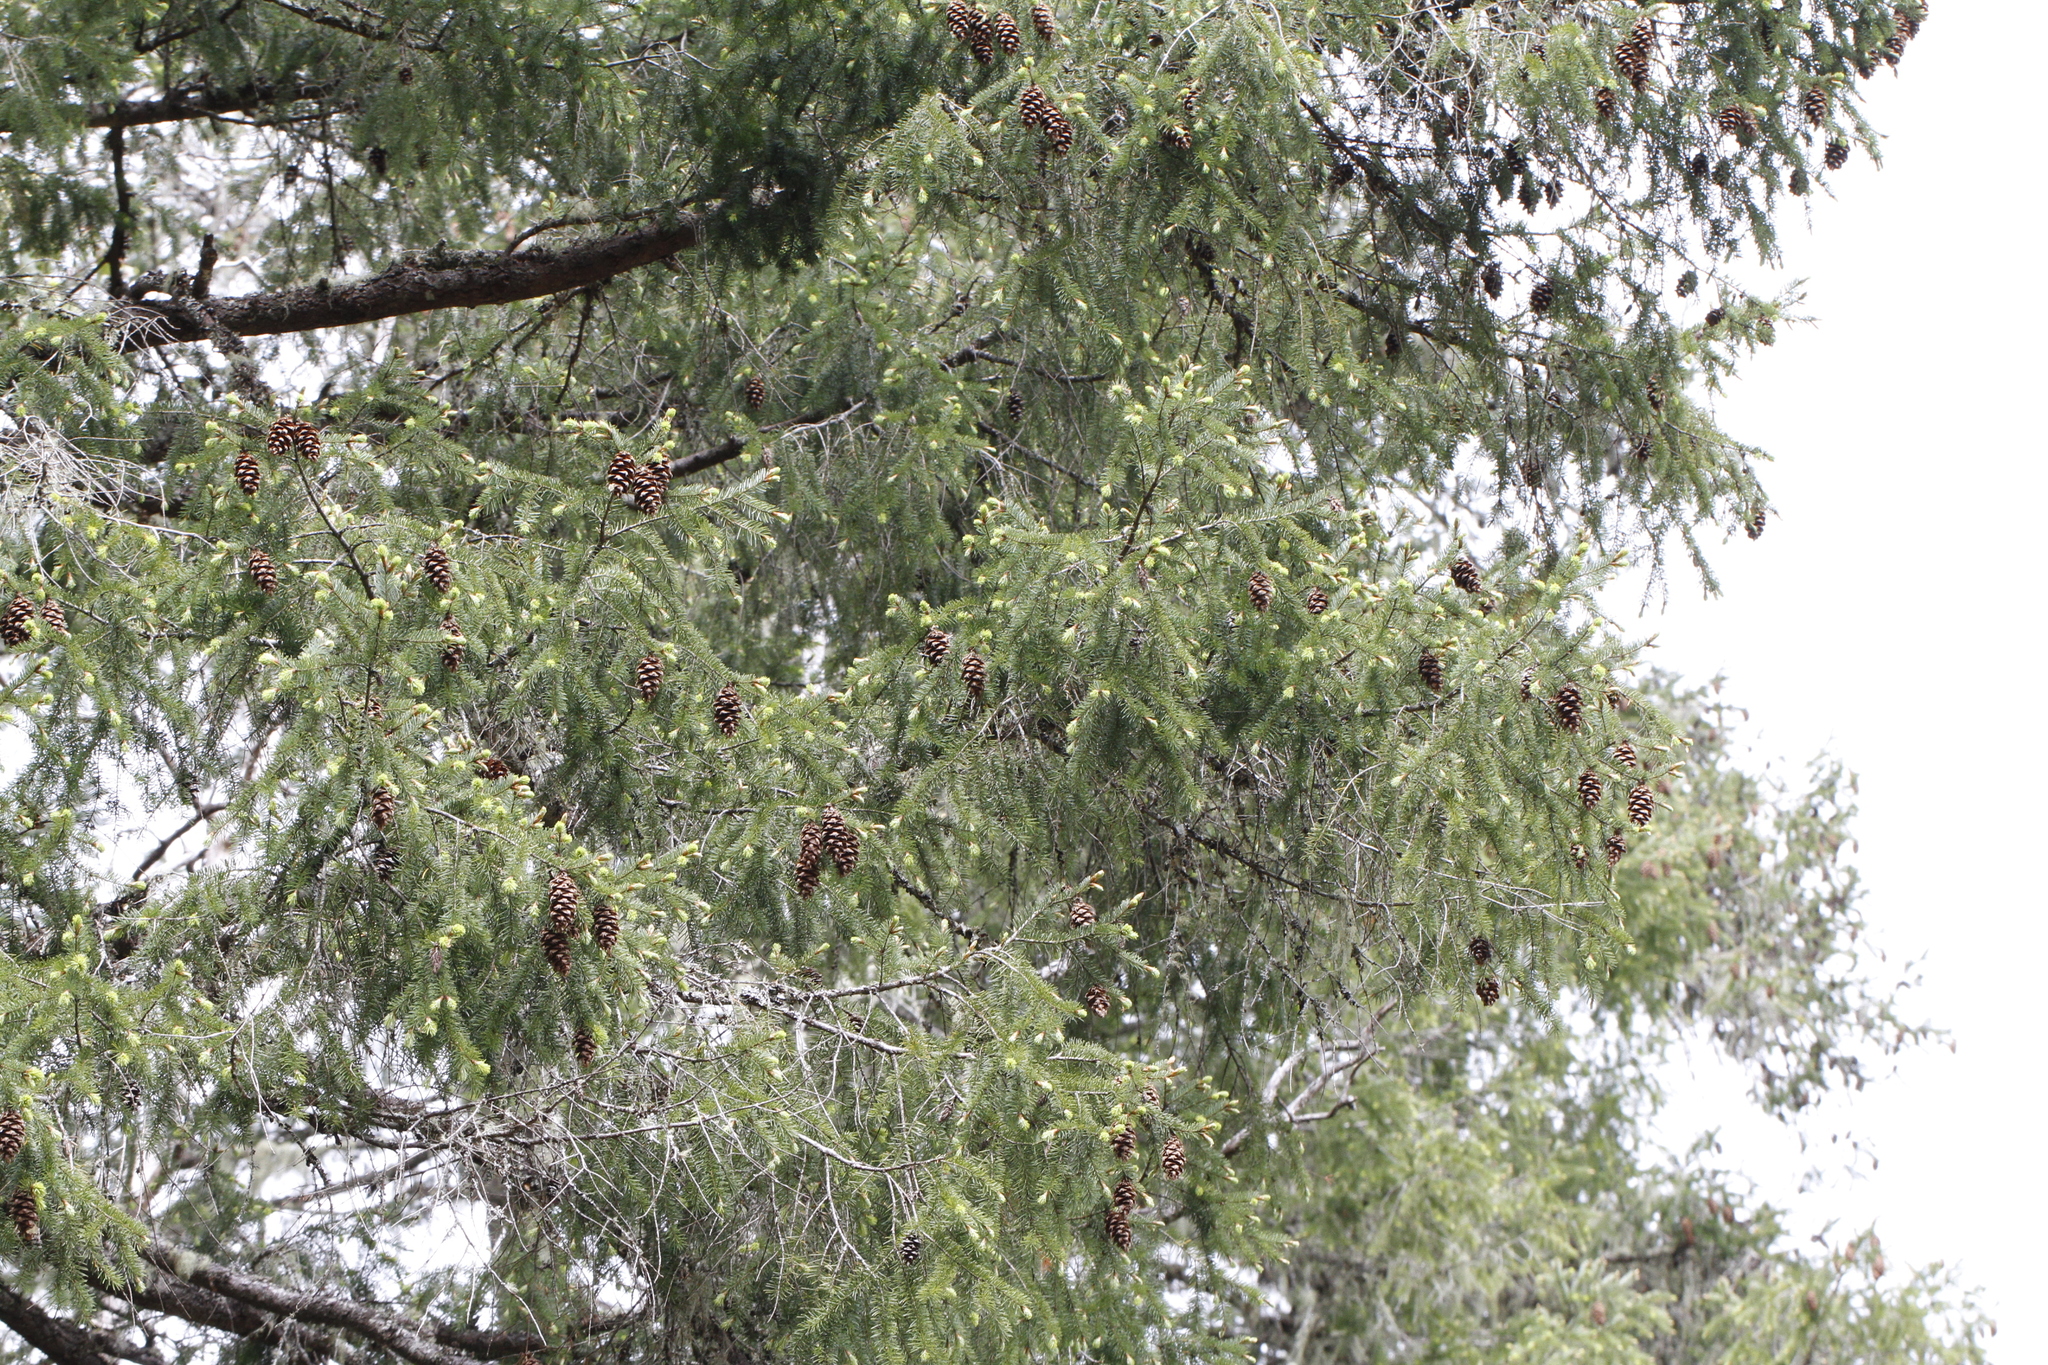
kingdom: Plantae
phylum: Tracheophyta
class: Pinopsida
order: Pinales
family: Pinaceae
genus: Pseudotsuga
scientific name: Pseudotsuga menziesii
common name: Douglas fir
